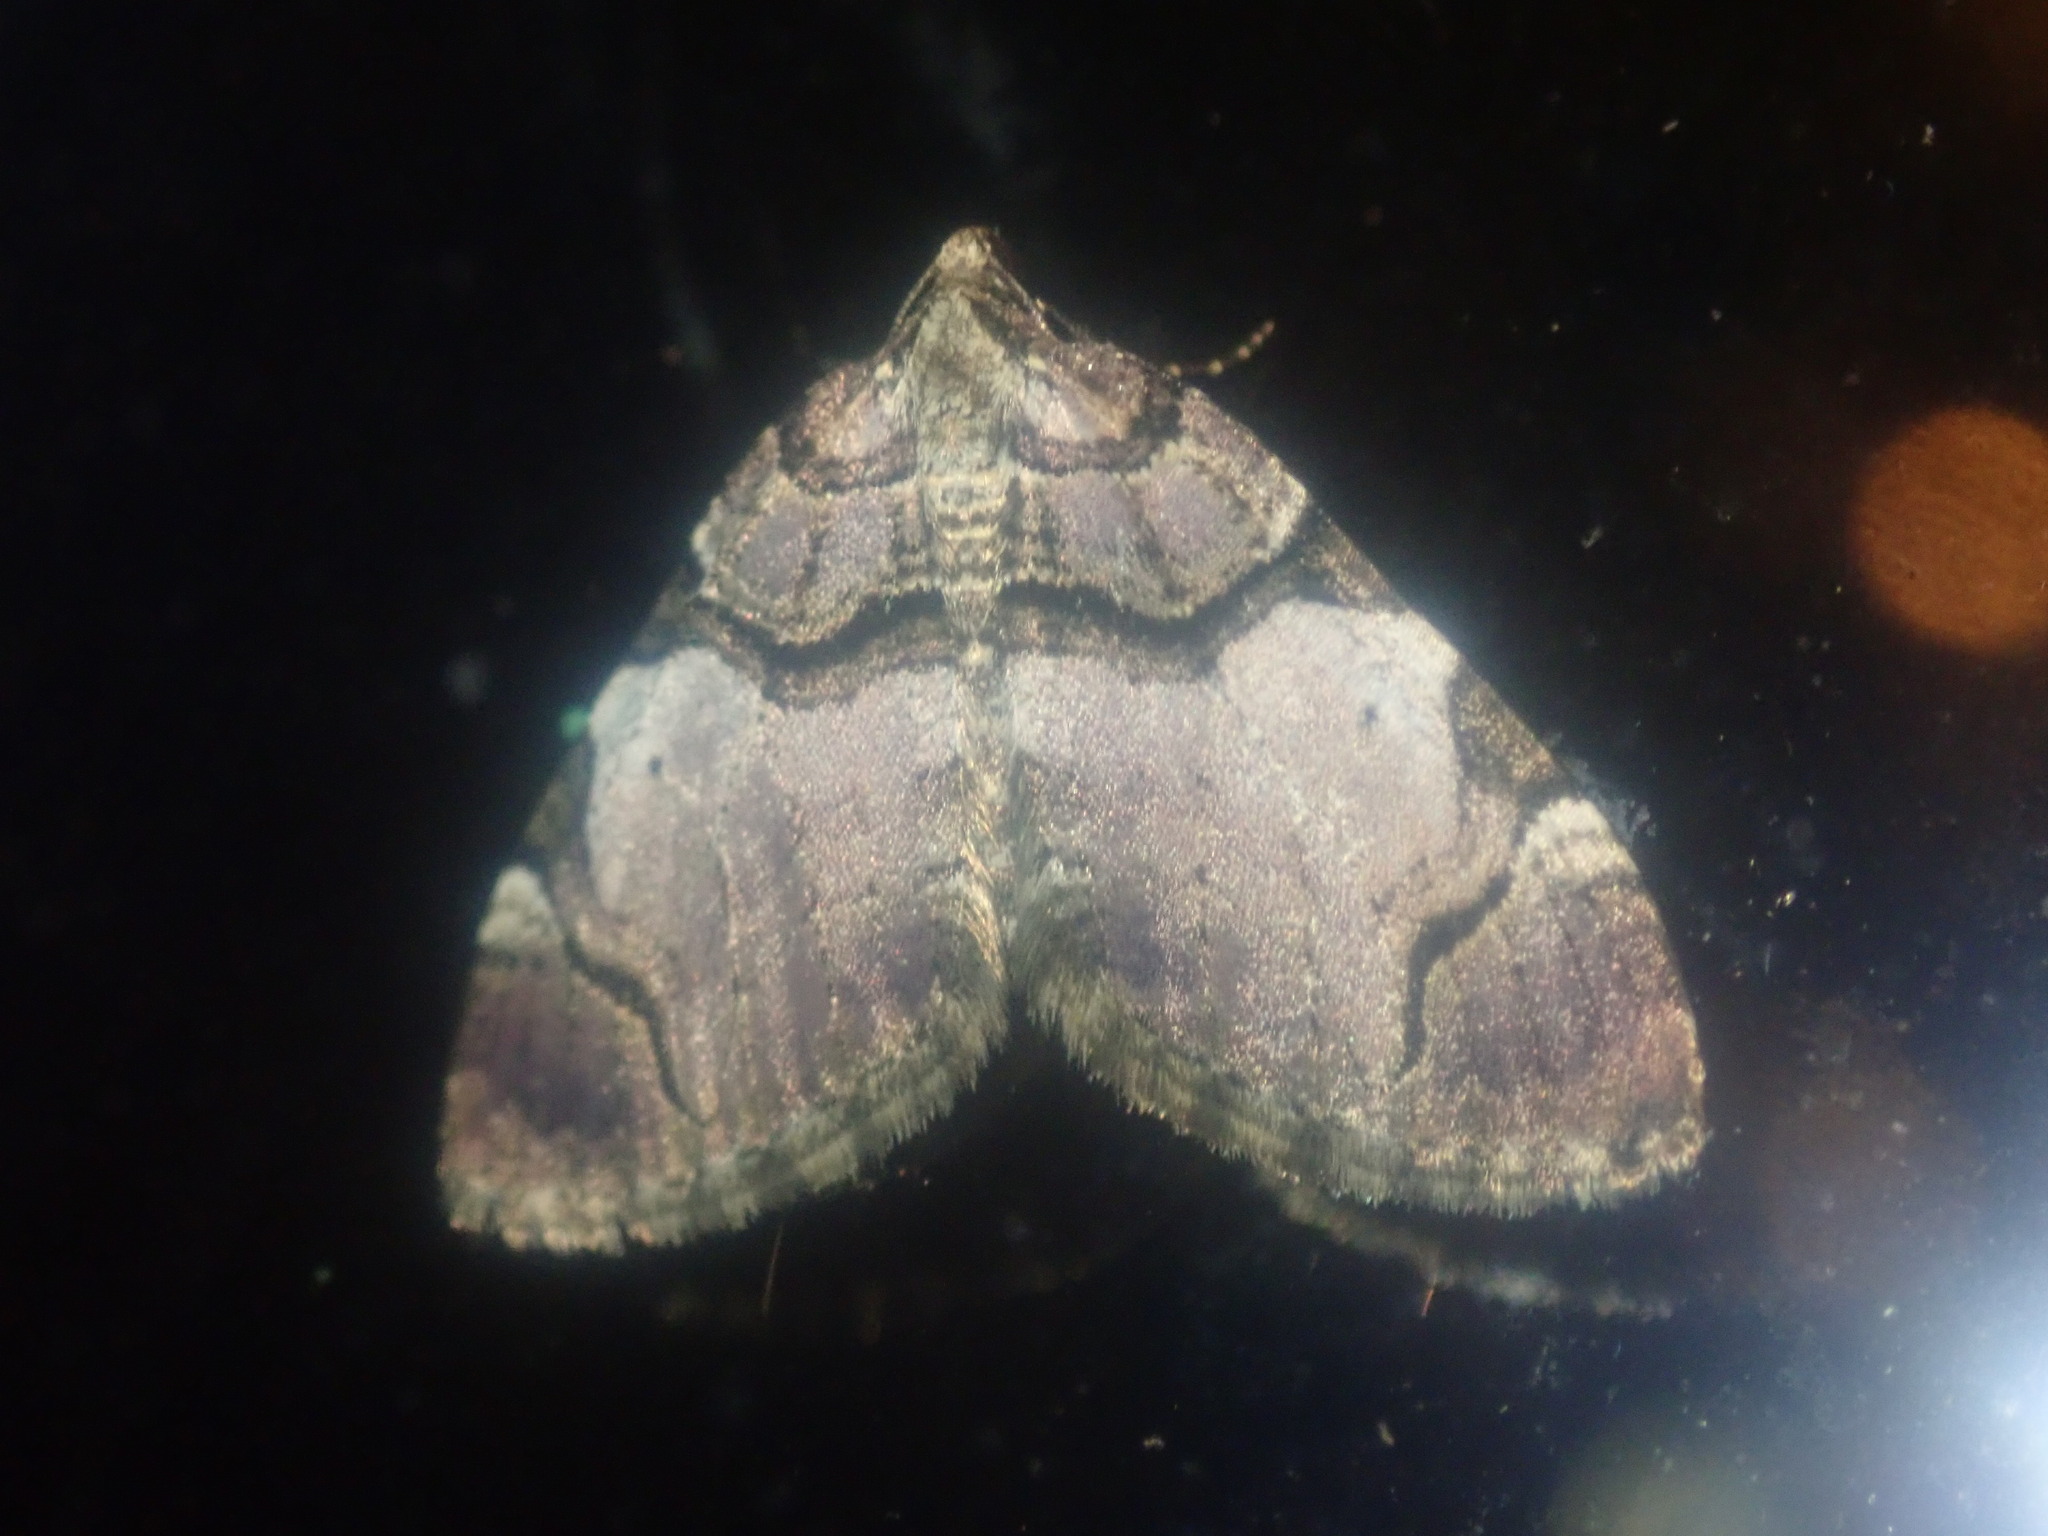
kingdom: Animalia
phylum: Arthropoda
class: Insecta
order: Lepidoptera
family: Geometridae
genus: Anticlea
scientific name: Anticlea derivata
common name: Streamer
